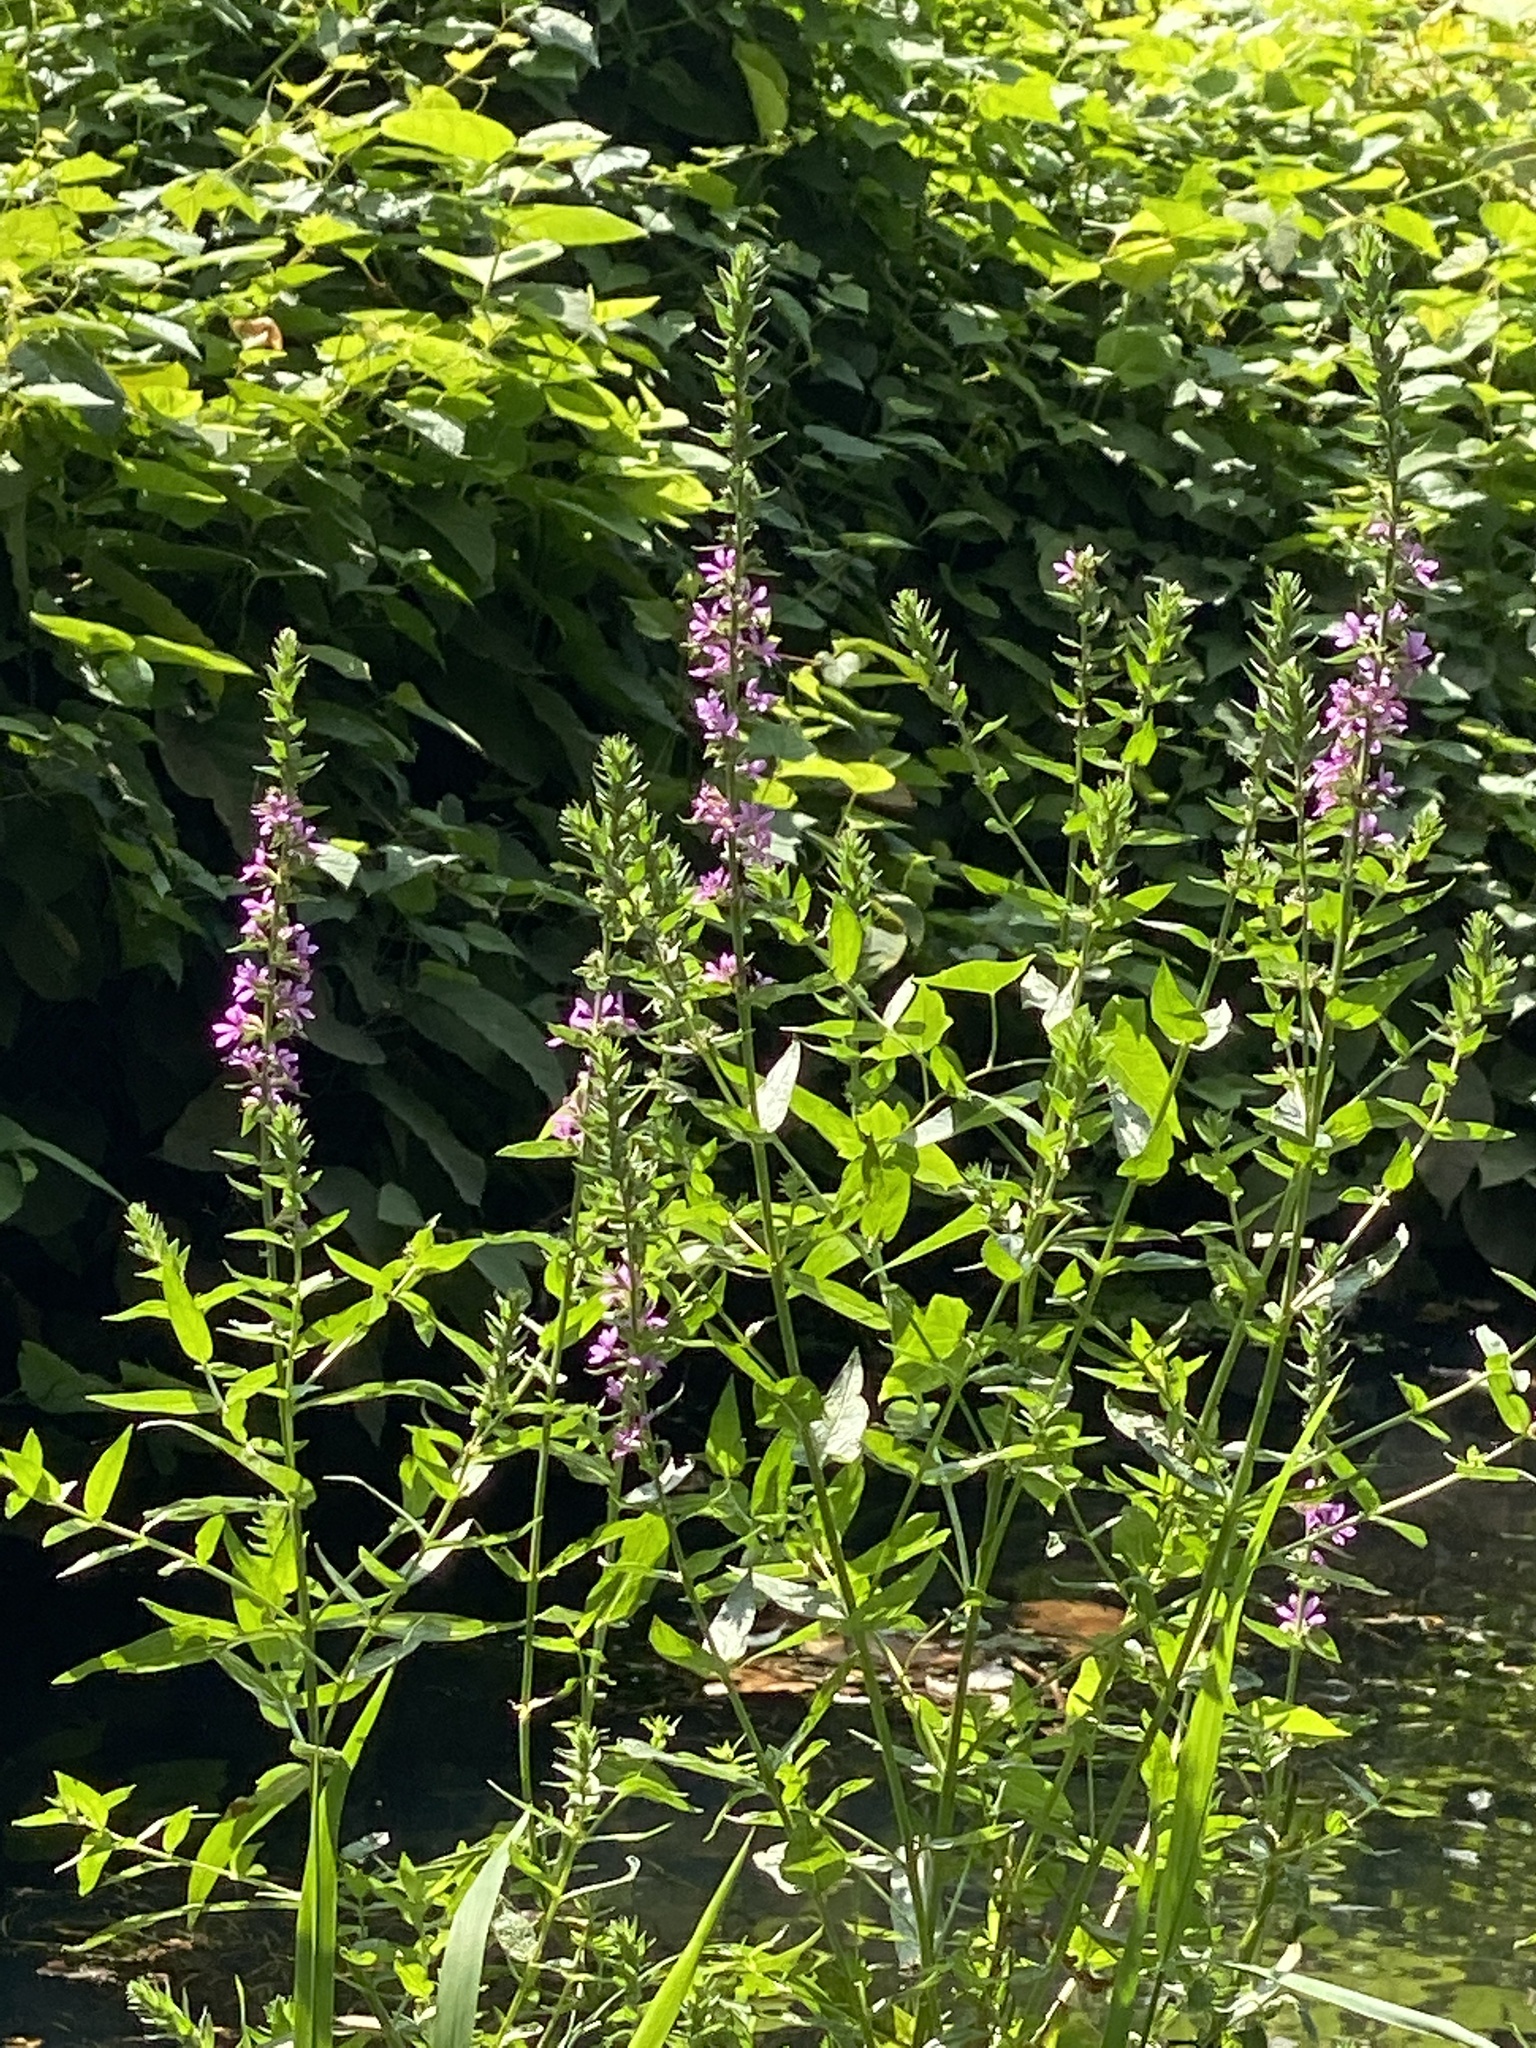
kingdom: Plantae
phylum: Tracheophyta
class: Magnoliopsida
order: Myrtales
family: Lythraceae
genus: Lythrum
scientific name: Lythrum salicaria
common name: Purple loosestrife
